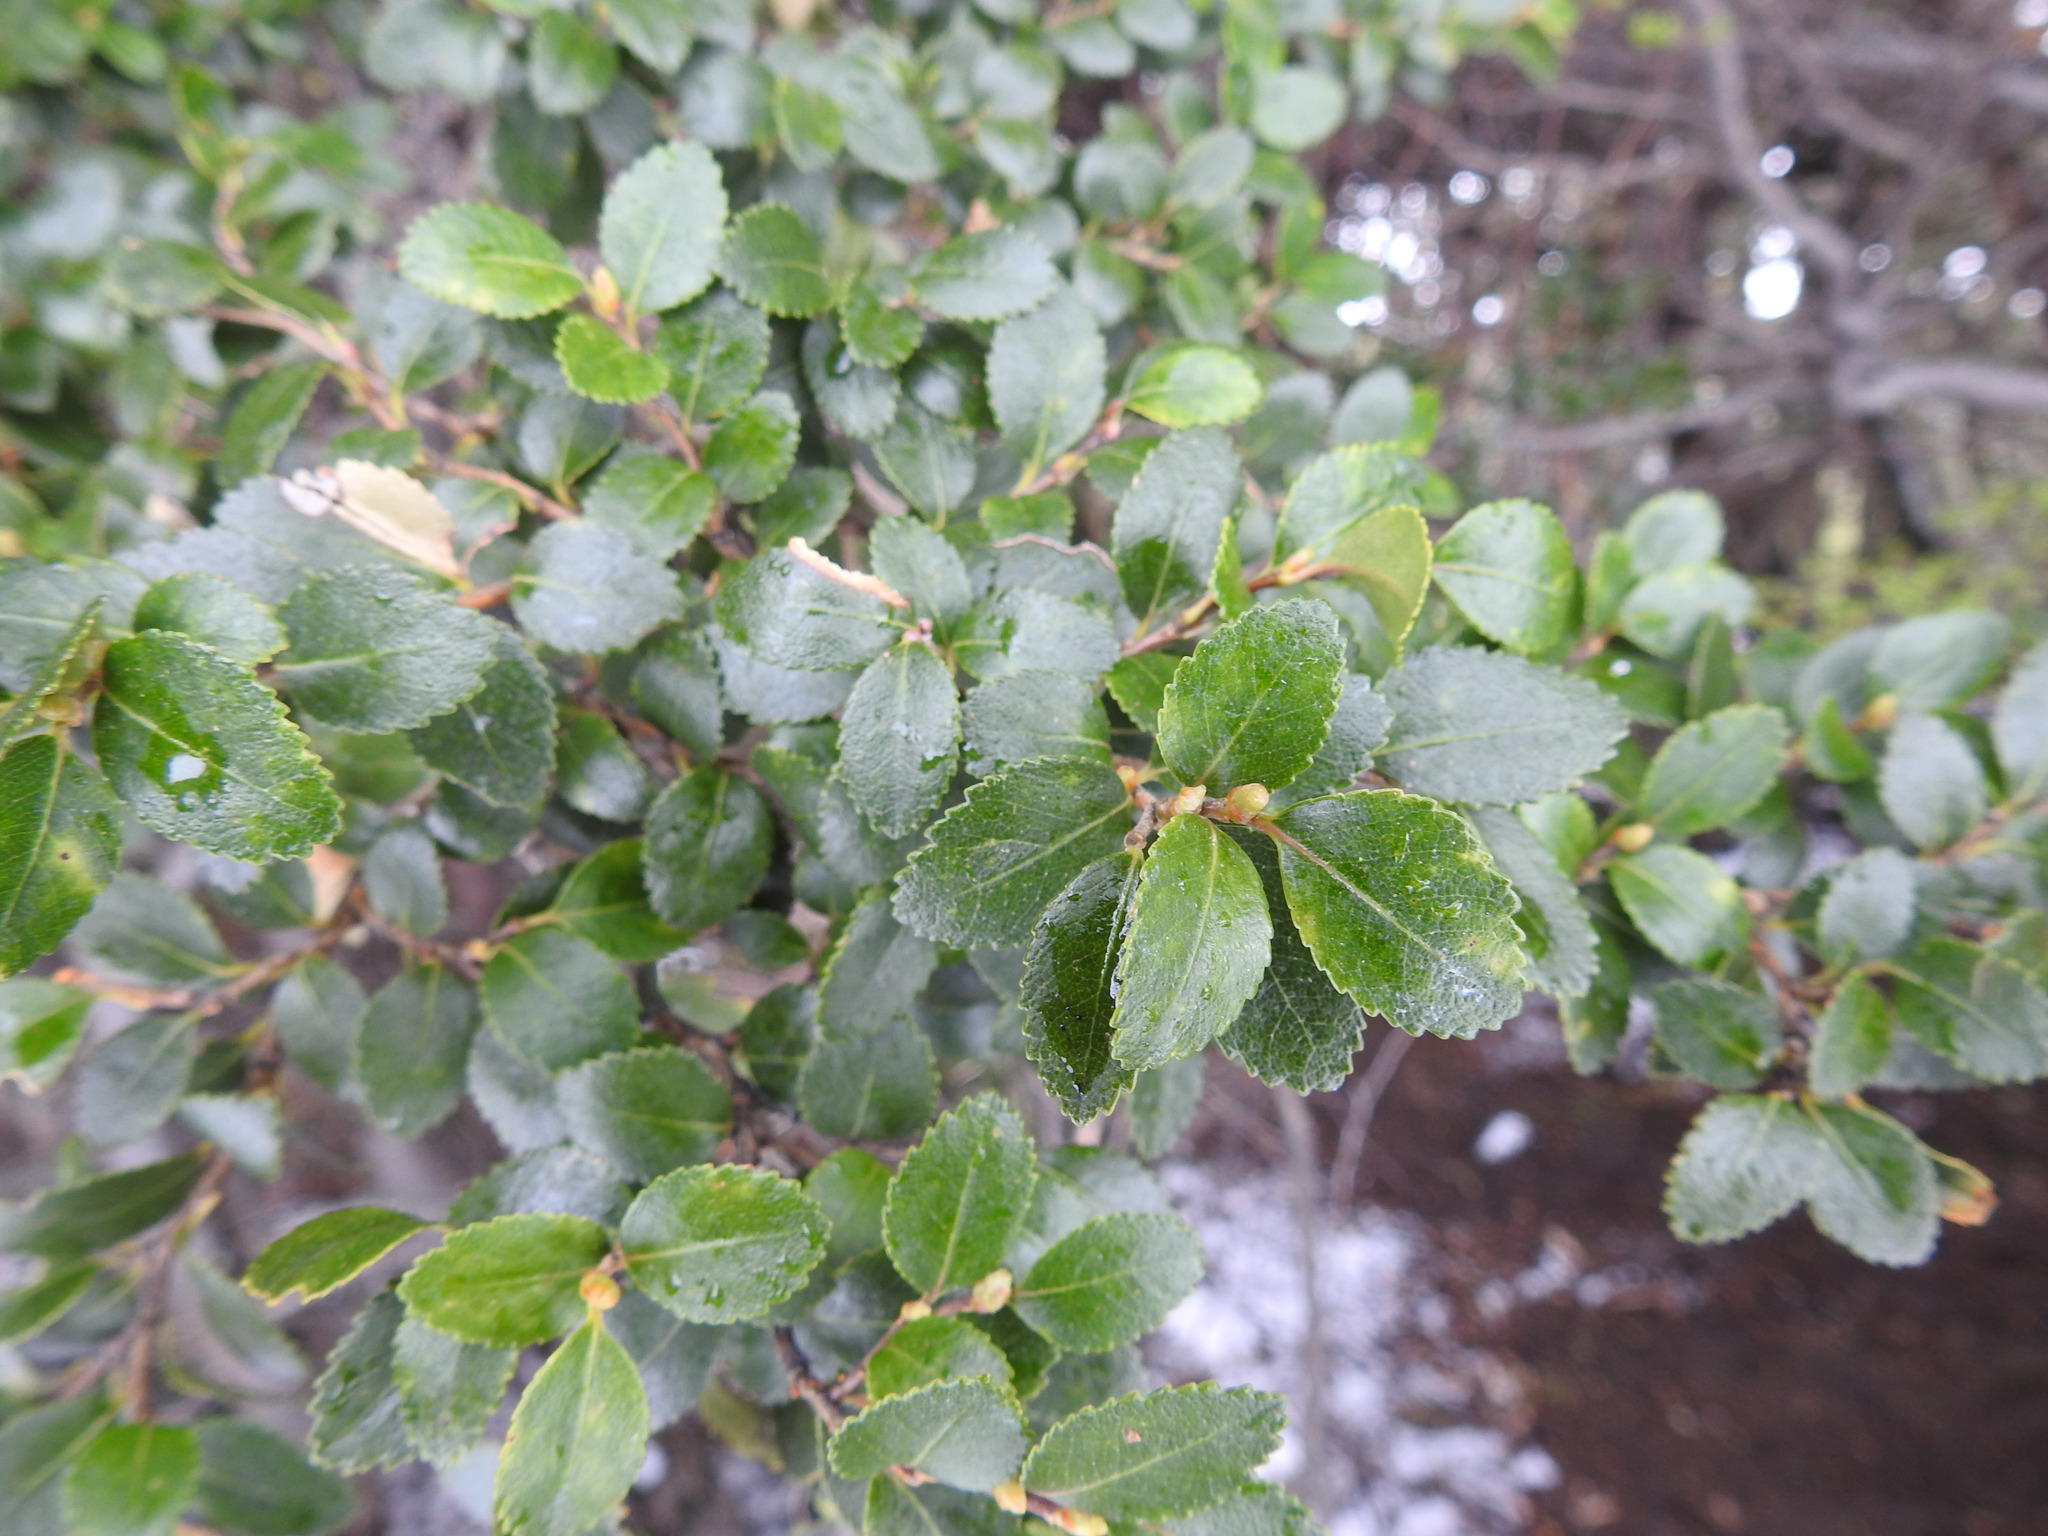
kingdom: Plantae
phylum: Tracheophyta
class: Magnoliopsida
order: Fagales
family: Nothofagaceae
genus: Nothofagus
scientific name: Nothofagus betuloides
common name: Magellan's beech
